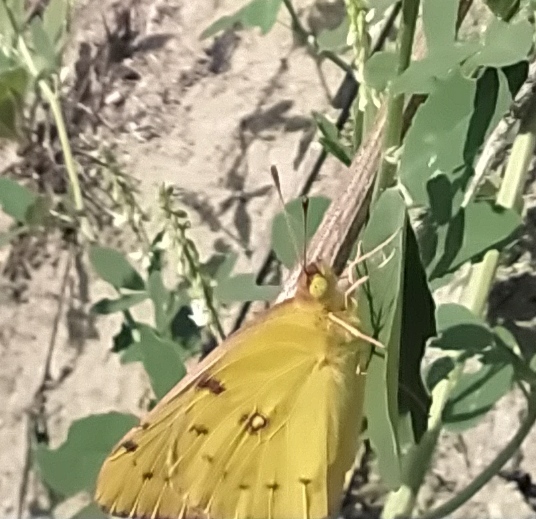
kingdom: Animalia
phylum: Arthropoda
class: Insecta
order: Lepidoptera
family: Pieridae
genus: Colias
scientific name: Colias hyale
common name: Pale clouded yellow
